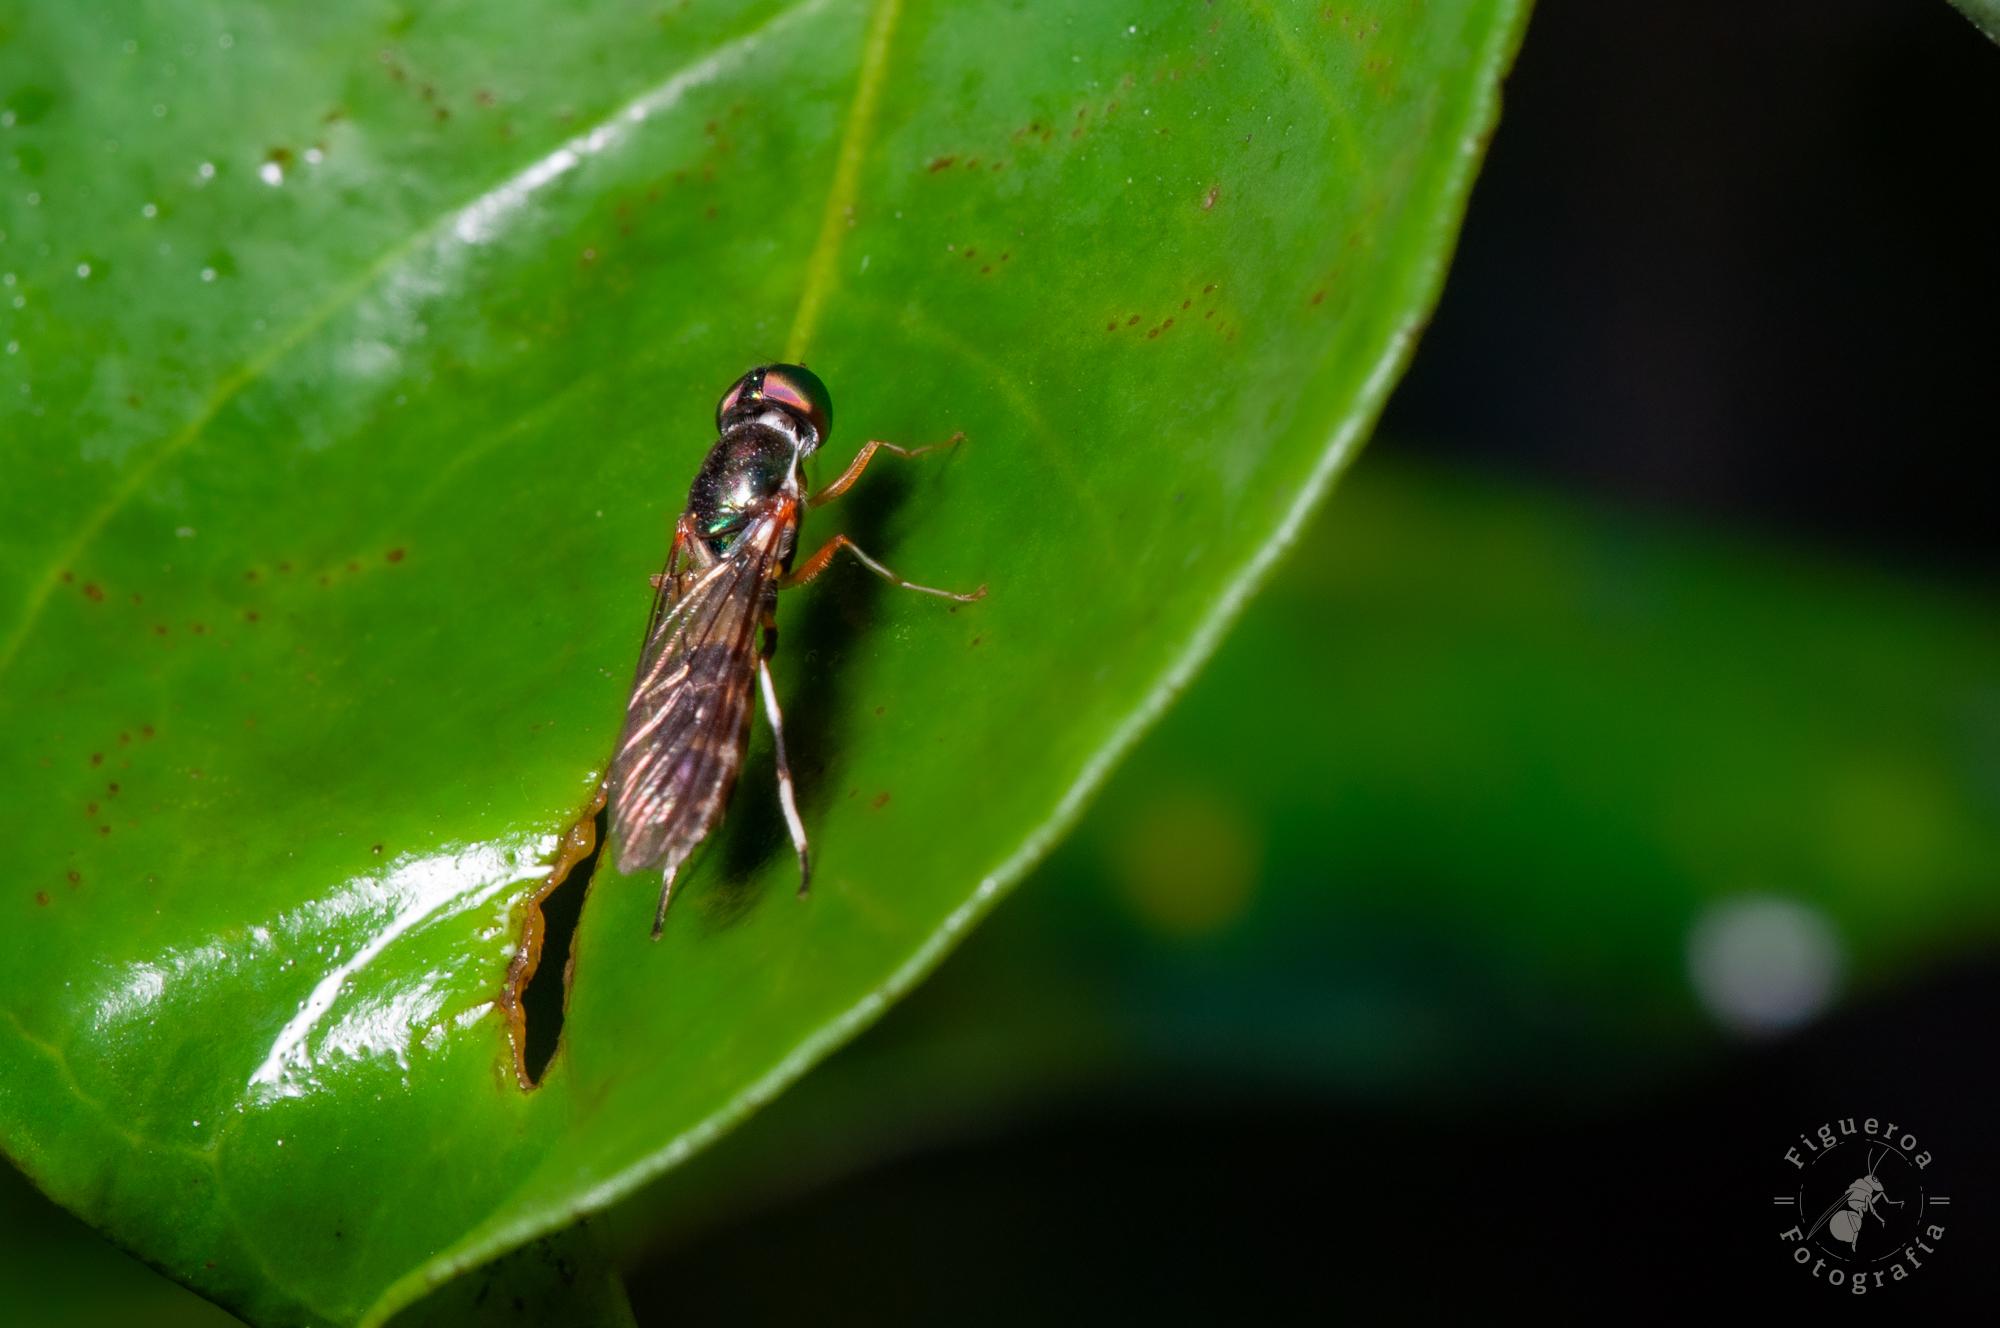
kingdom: Animalia
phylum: Arthropoda
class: Insecta
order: Diptera
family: Stratiomyidae
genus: Sargus
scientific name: Sargus fasciatus
